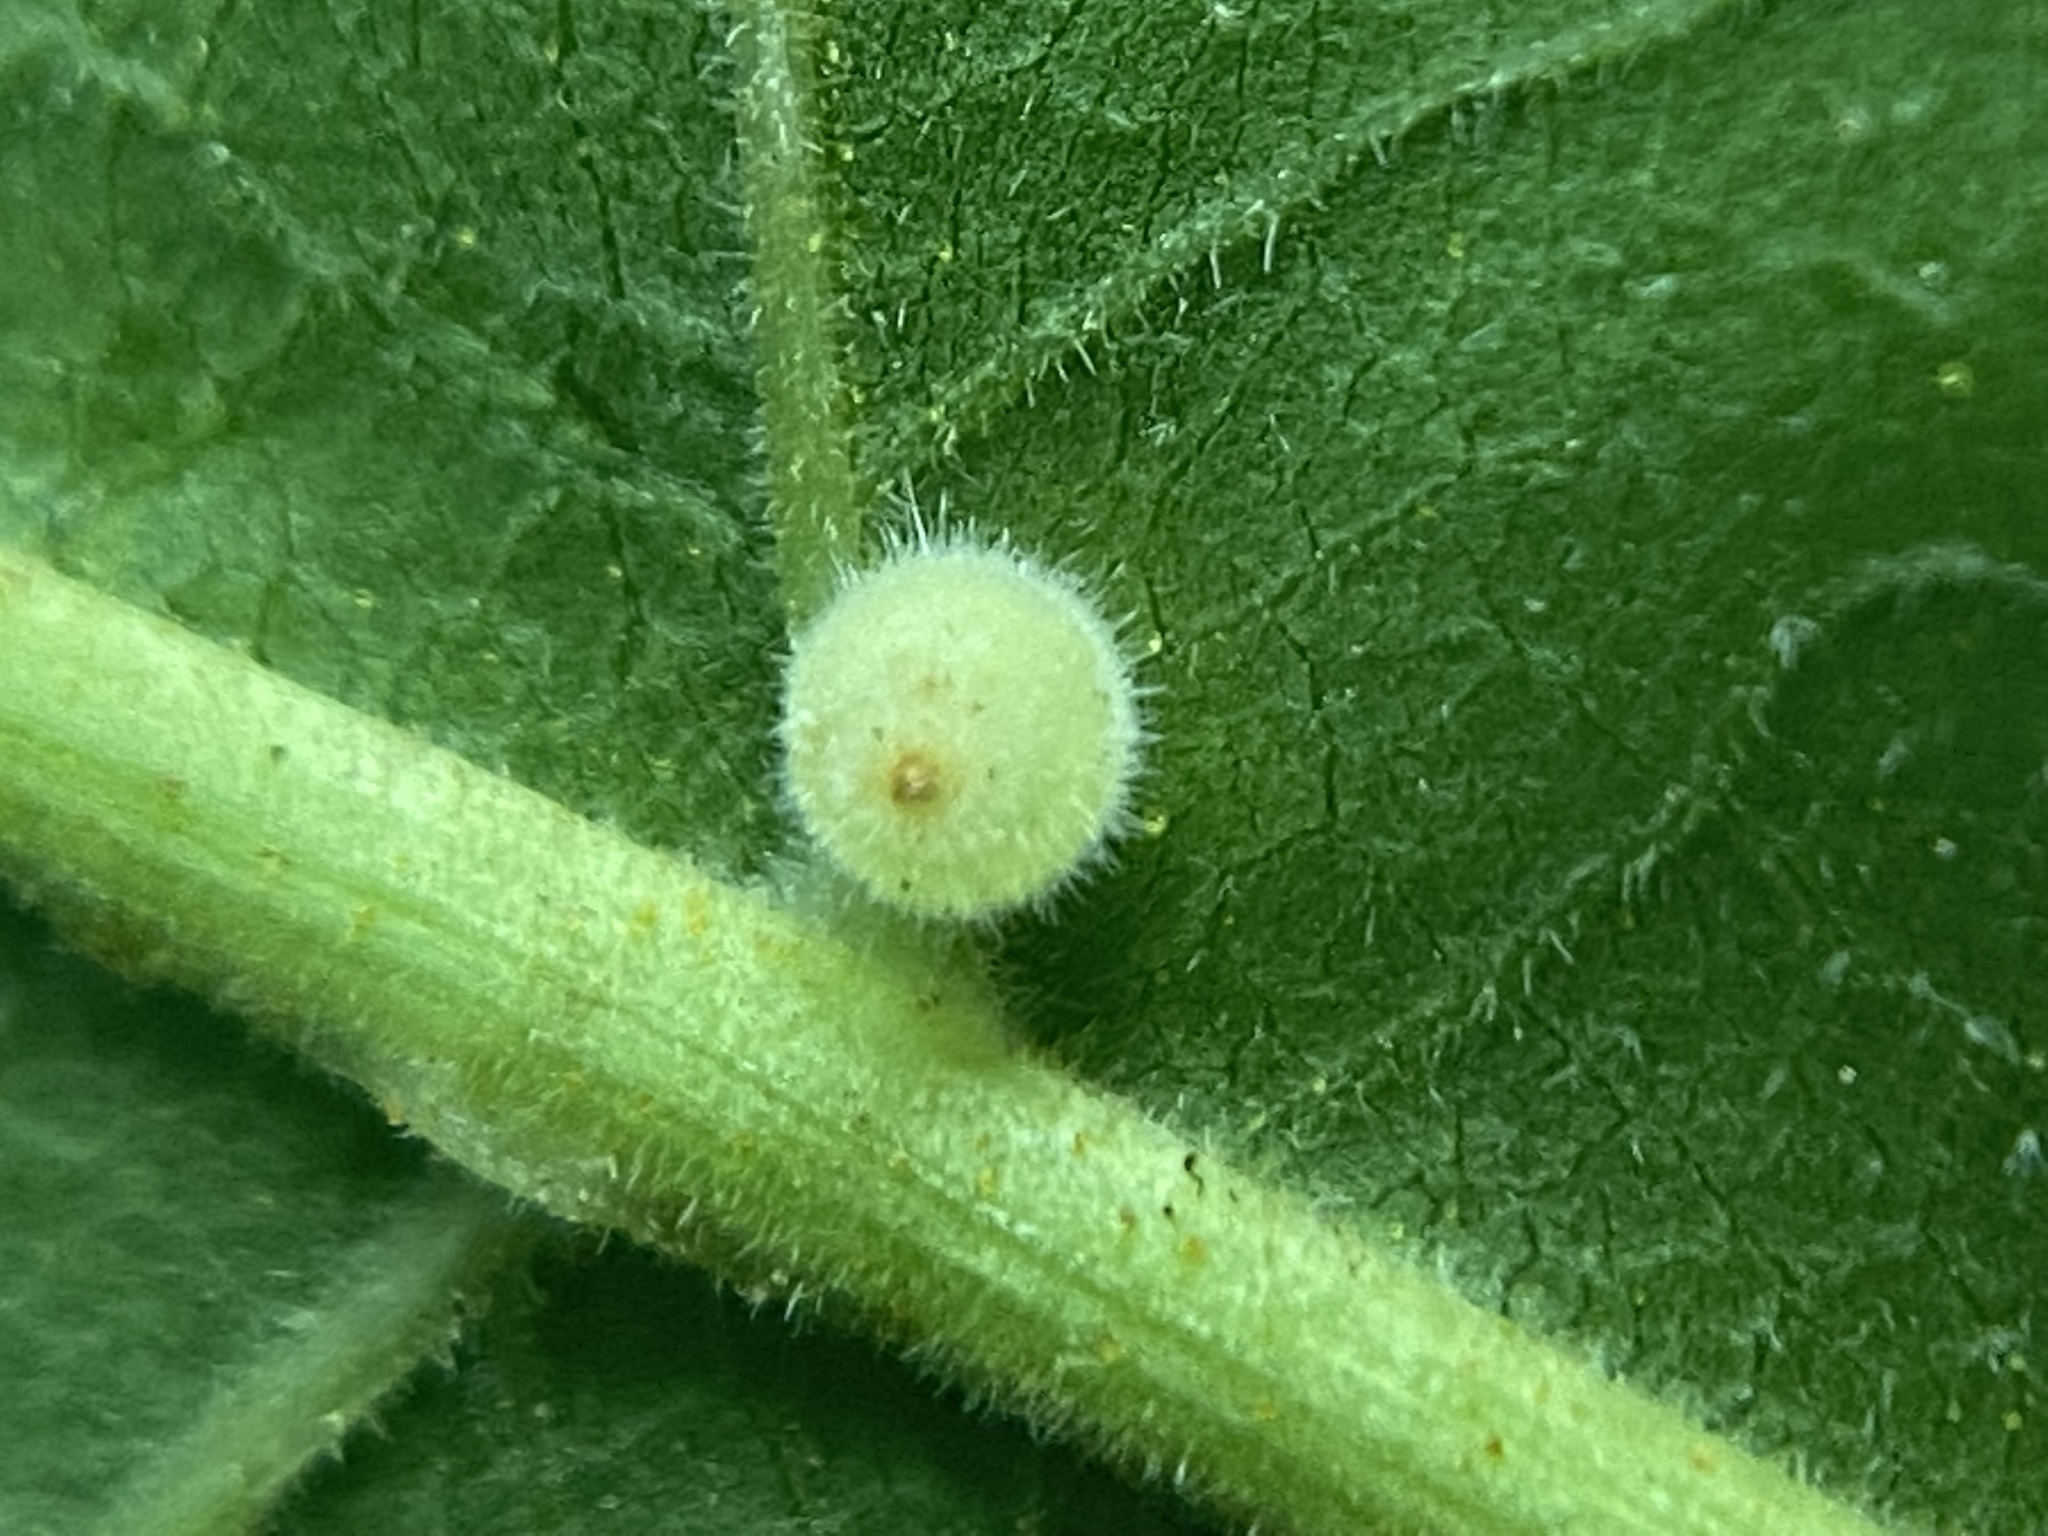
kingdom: Animalia
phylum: Arthropoda
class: Insecta
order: Diptera
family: Cecidomyiidae
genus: Caryomyia
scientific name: Caryomyia cilidolium
